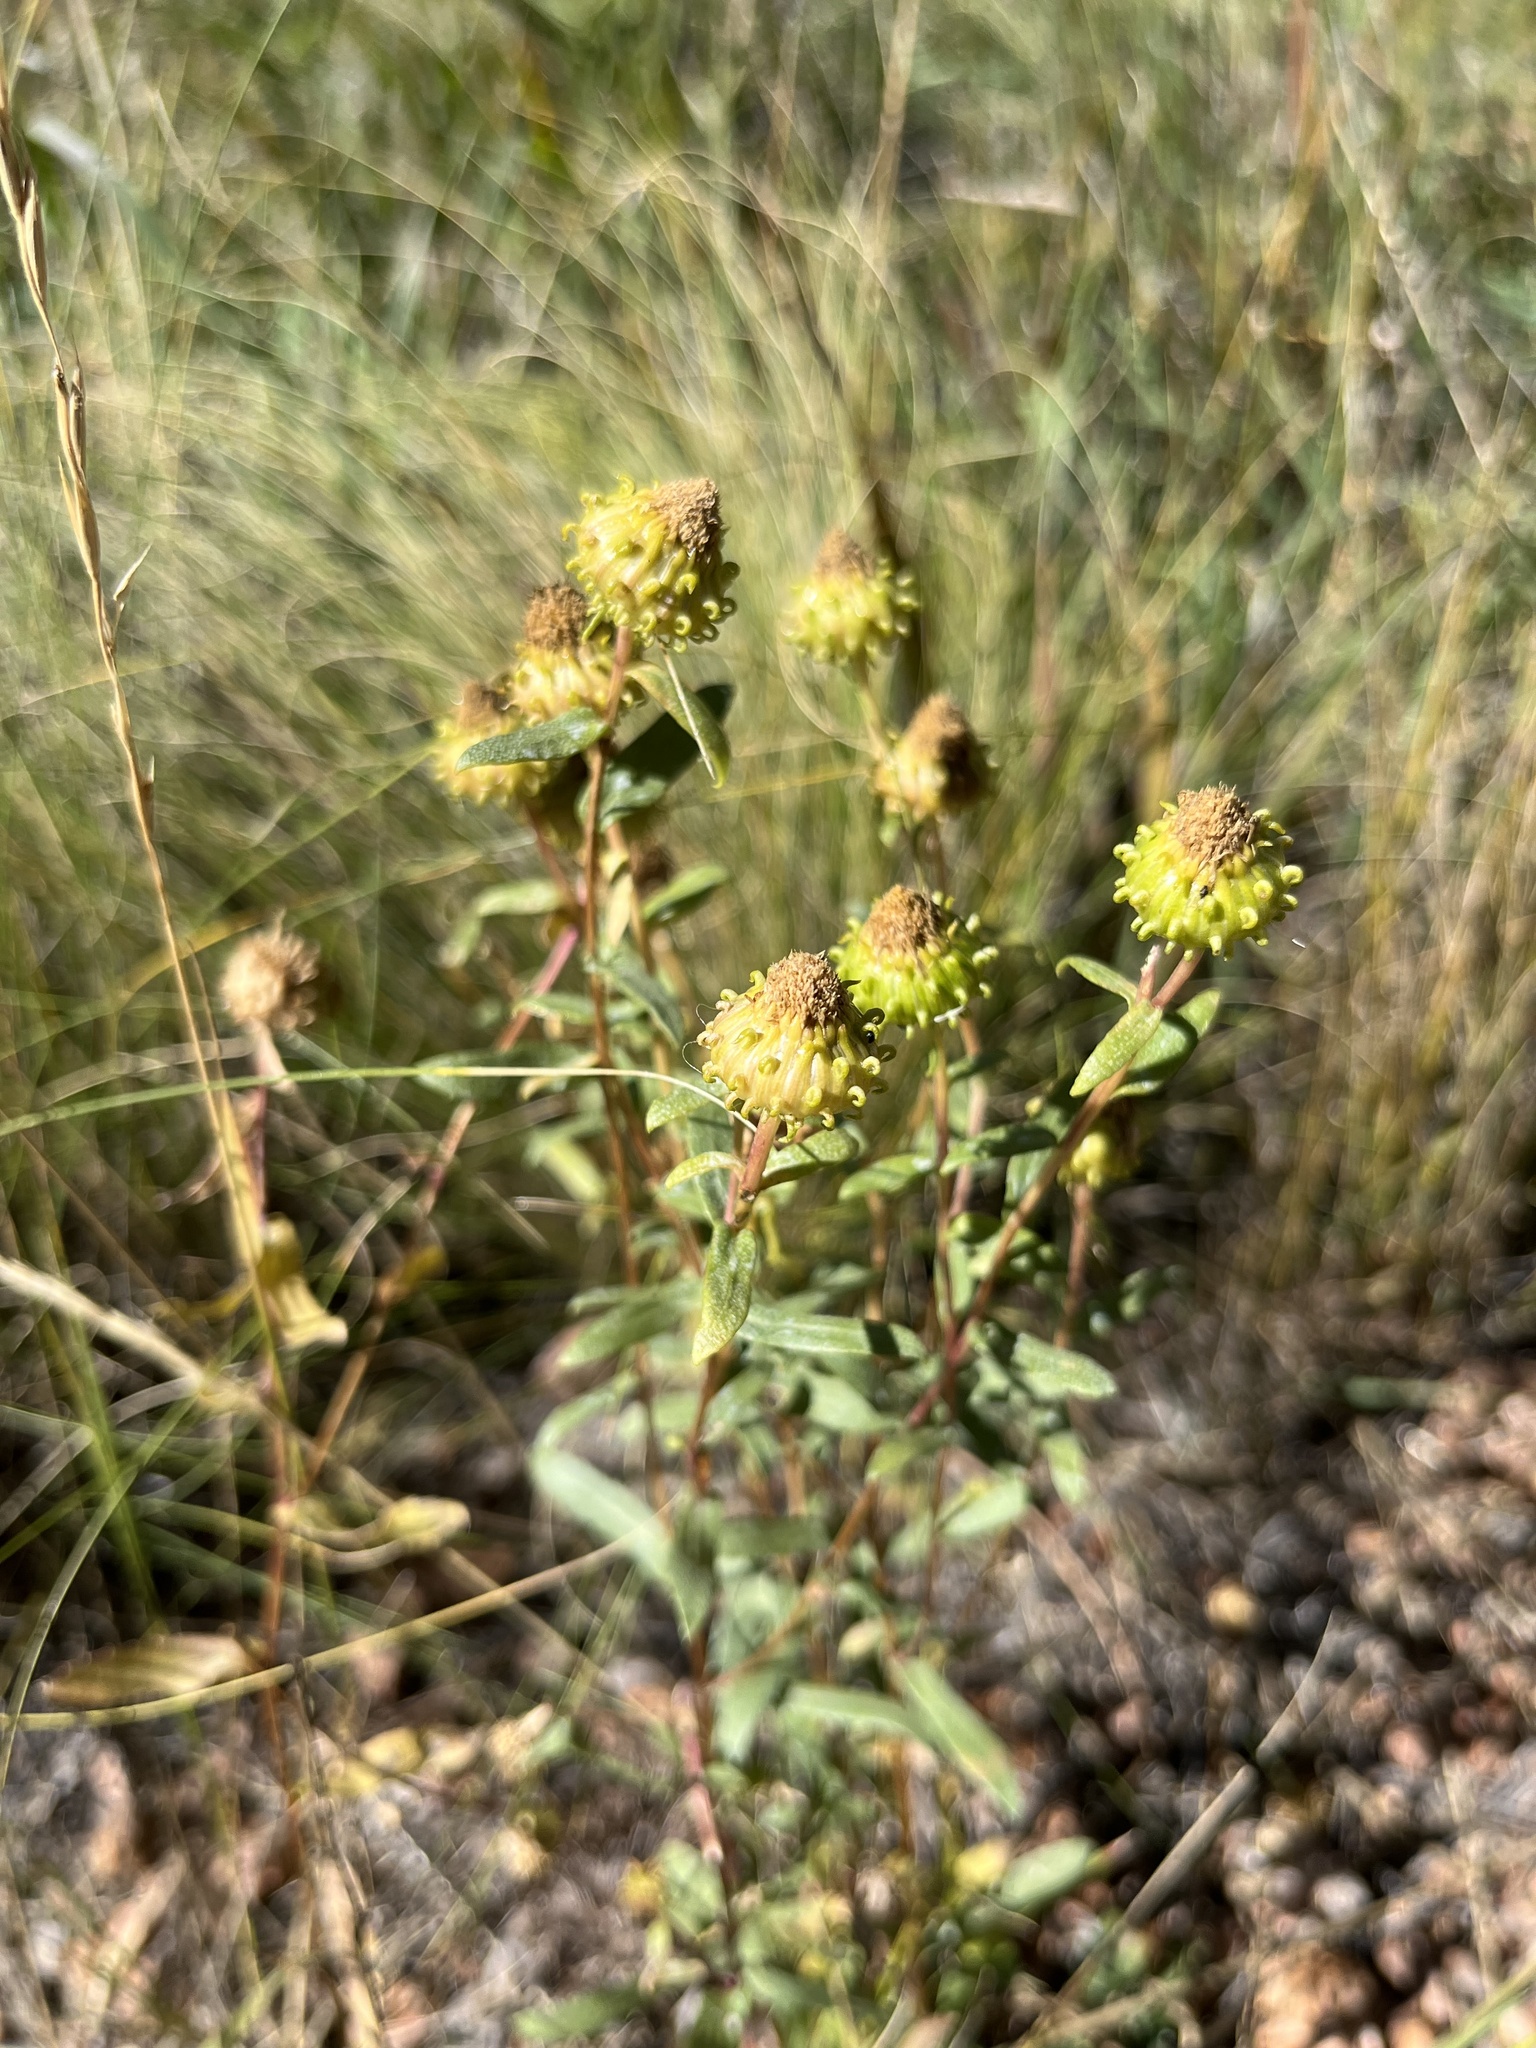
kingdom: Plantae
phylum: Tracheophyta
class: Magnoliopsida
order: Asterales
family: Asteraceae
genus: Grindelia
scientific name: Grindelia squarrosa
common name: Curly-cup gumweed
